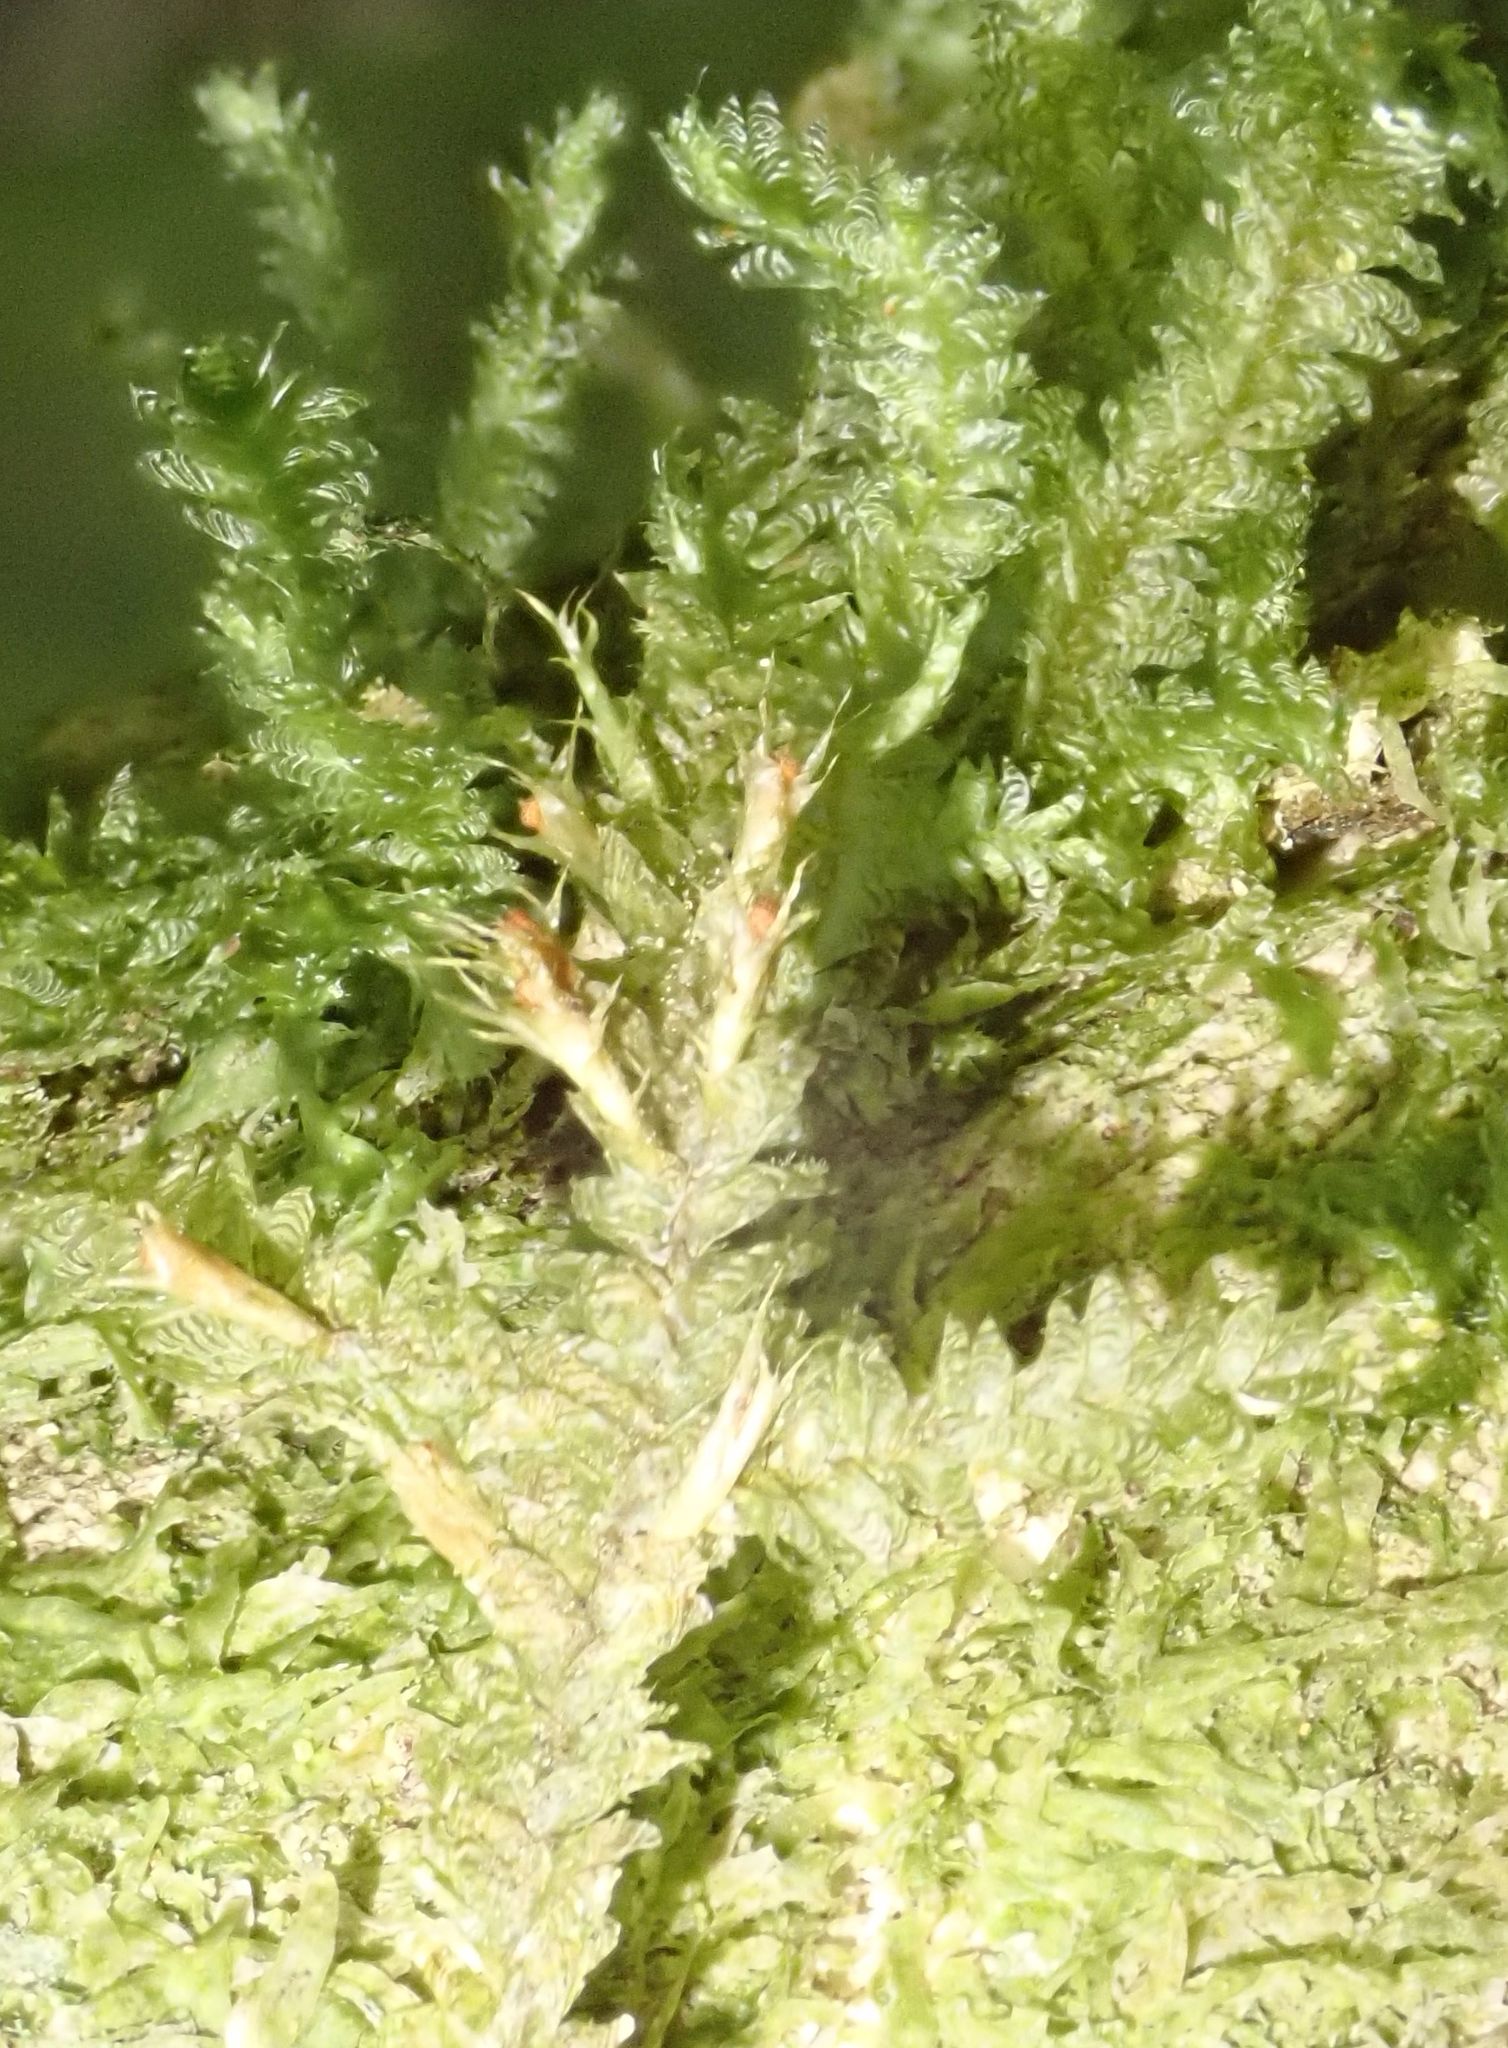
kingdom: Plantae
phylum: Bryophyta
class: Bryopsida
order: Hypnales
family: Neckeraceae
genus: Alleniella
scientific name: Alleniella hymenodonta
